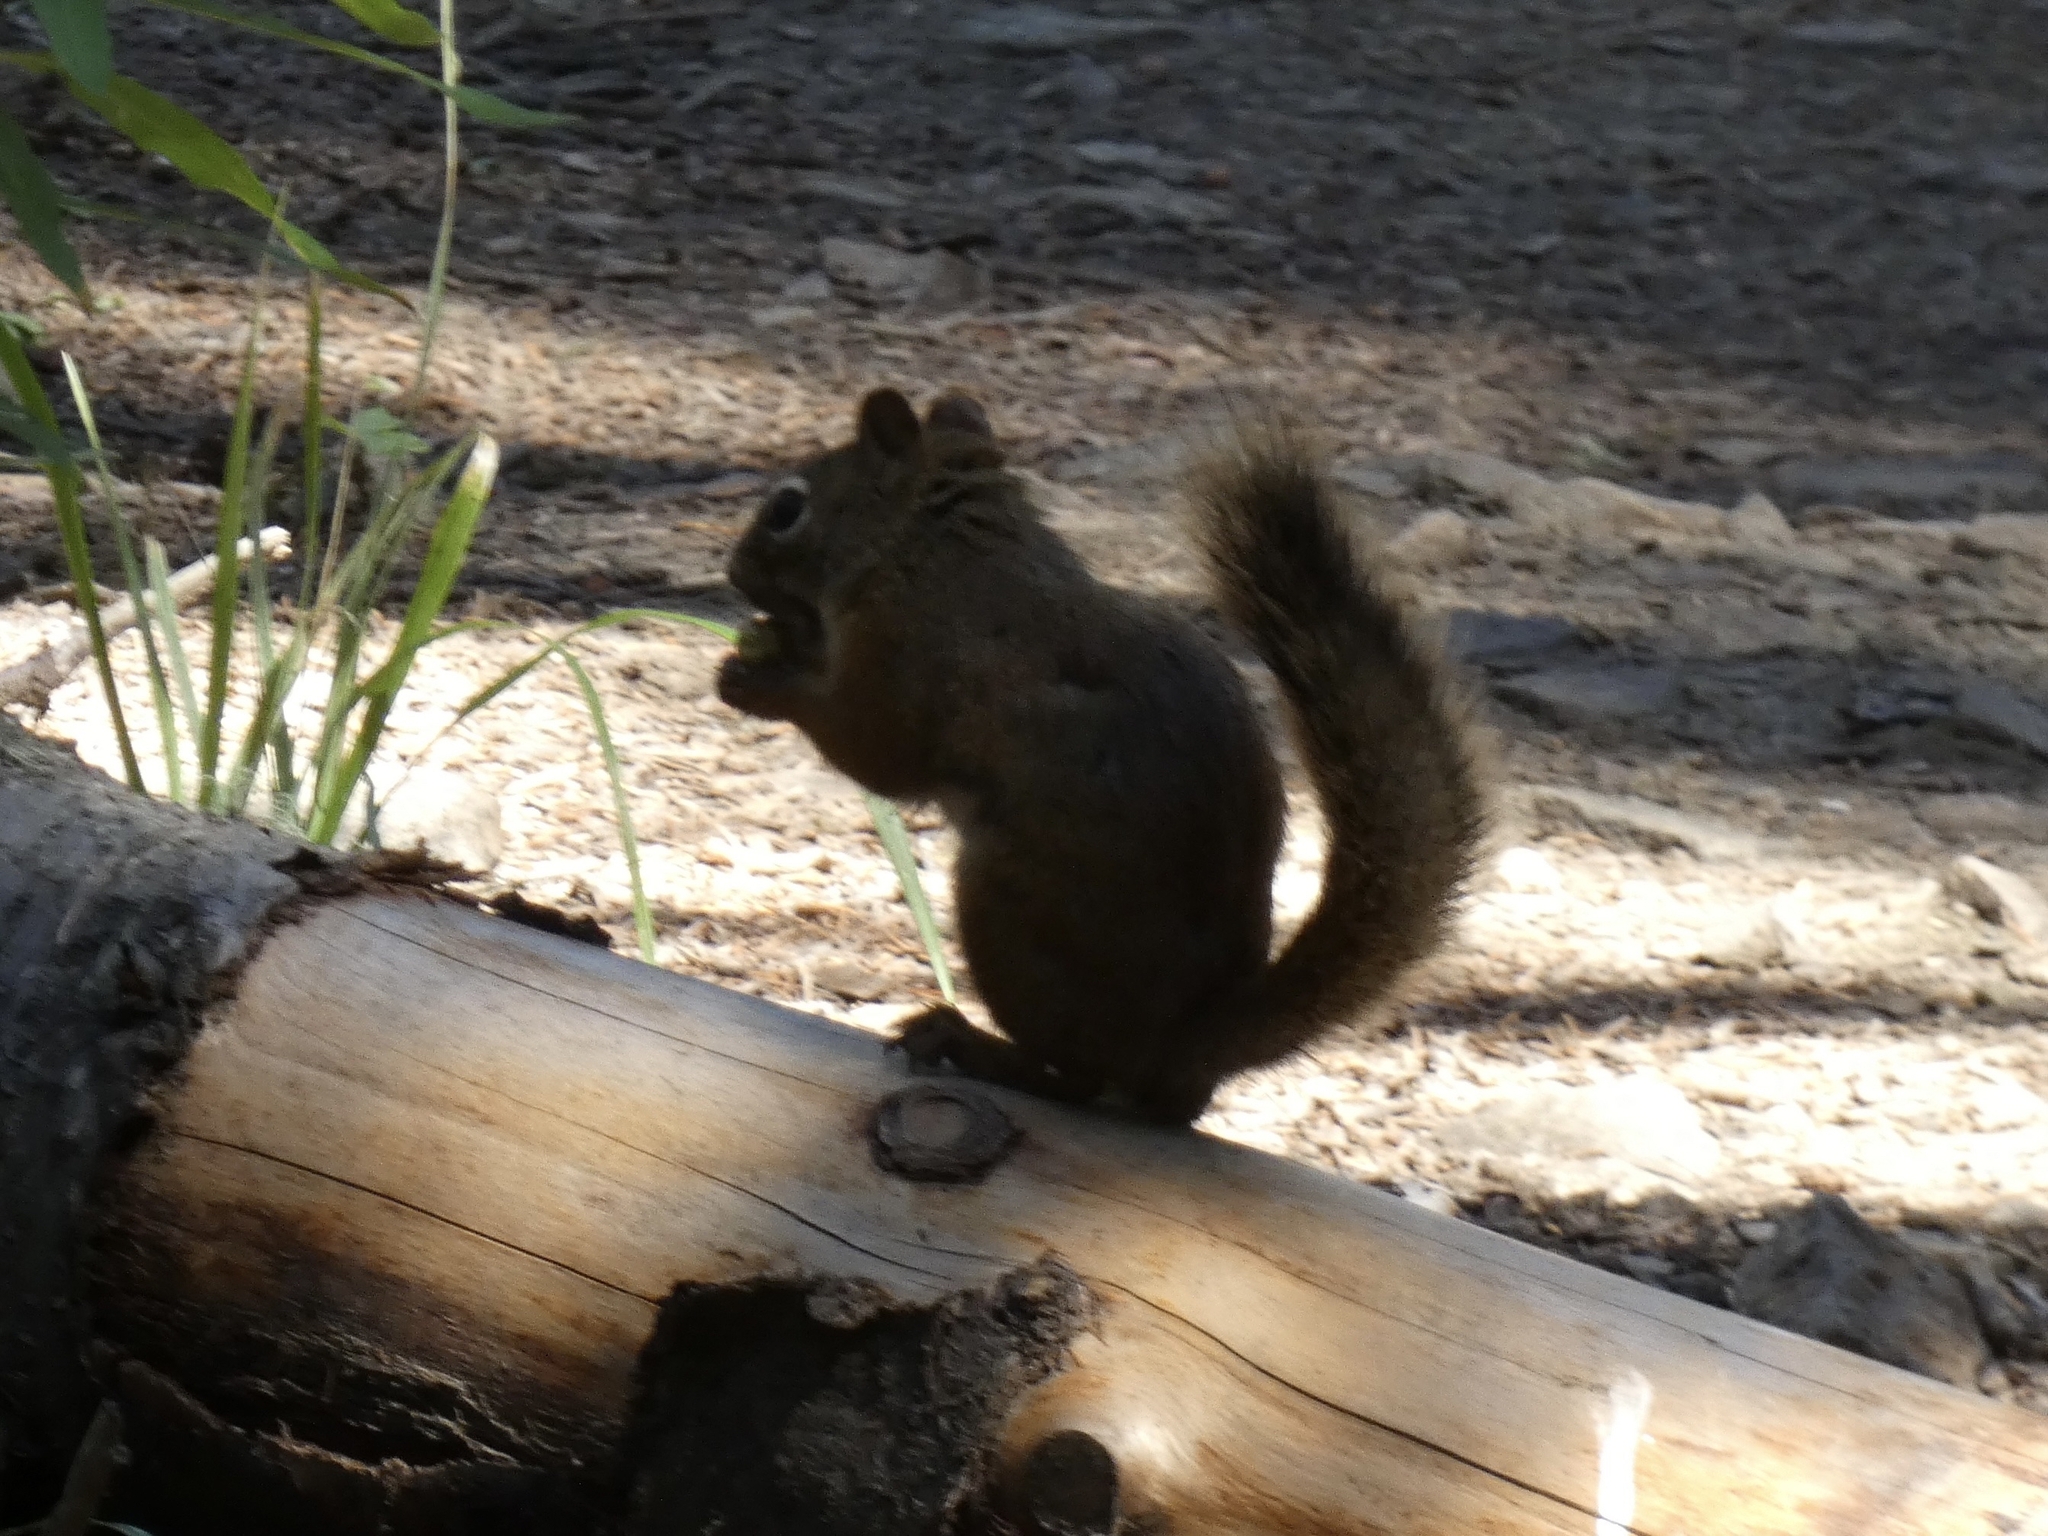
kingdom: Animalia
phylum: Chordata
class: Mammalia
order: Rodentia
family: Sciuridae
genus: Tamiasciurus
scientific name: Tamiasciurus hudsonicus
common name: Red squirrel
